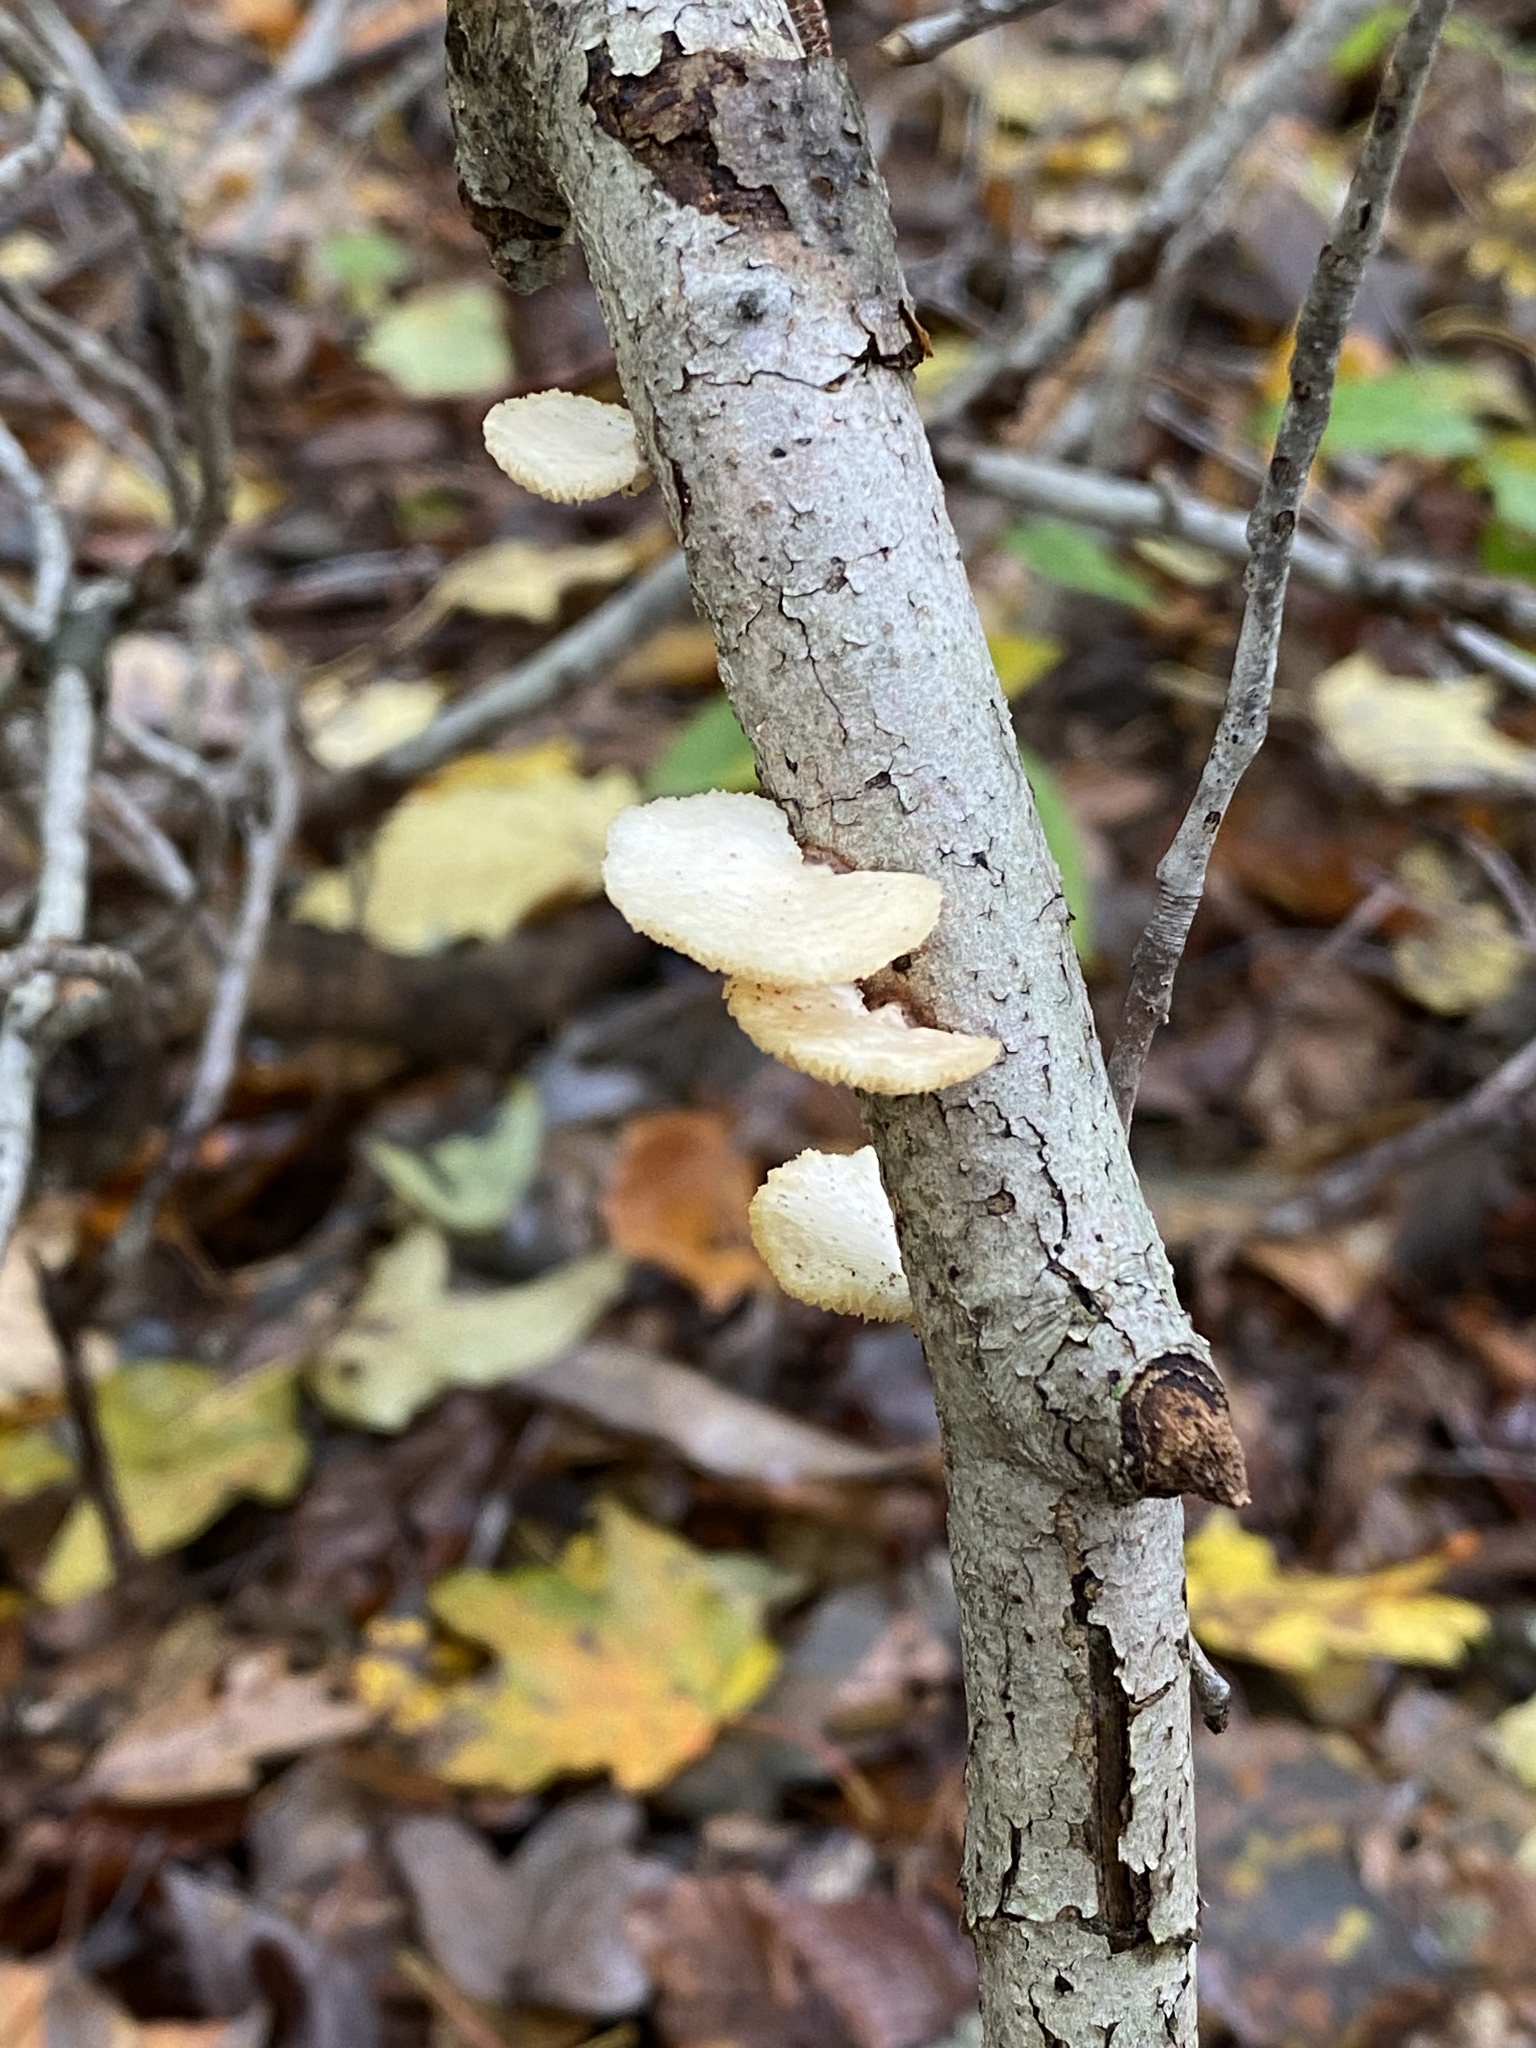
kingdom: Fungi
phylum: Basidiomycota
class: Agaricomycetes
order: Polyporales
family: Polyporaceae
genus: Neofavolus
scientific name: Neofavolus alveolaris
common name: Hexagonal-pored polypore
